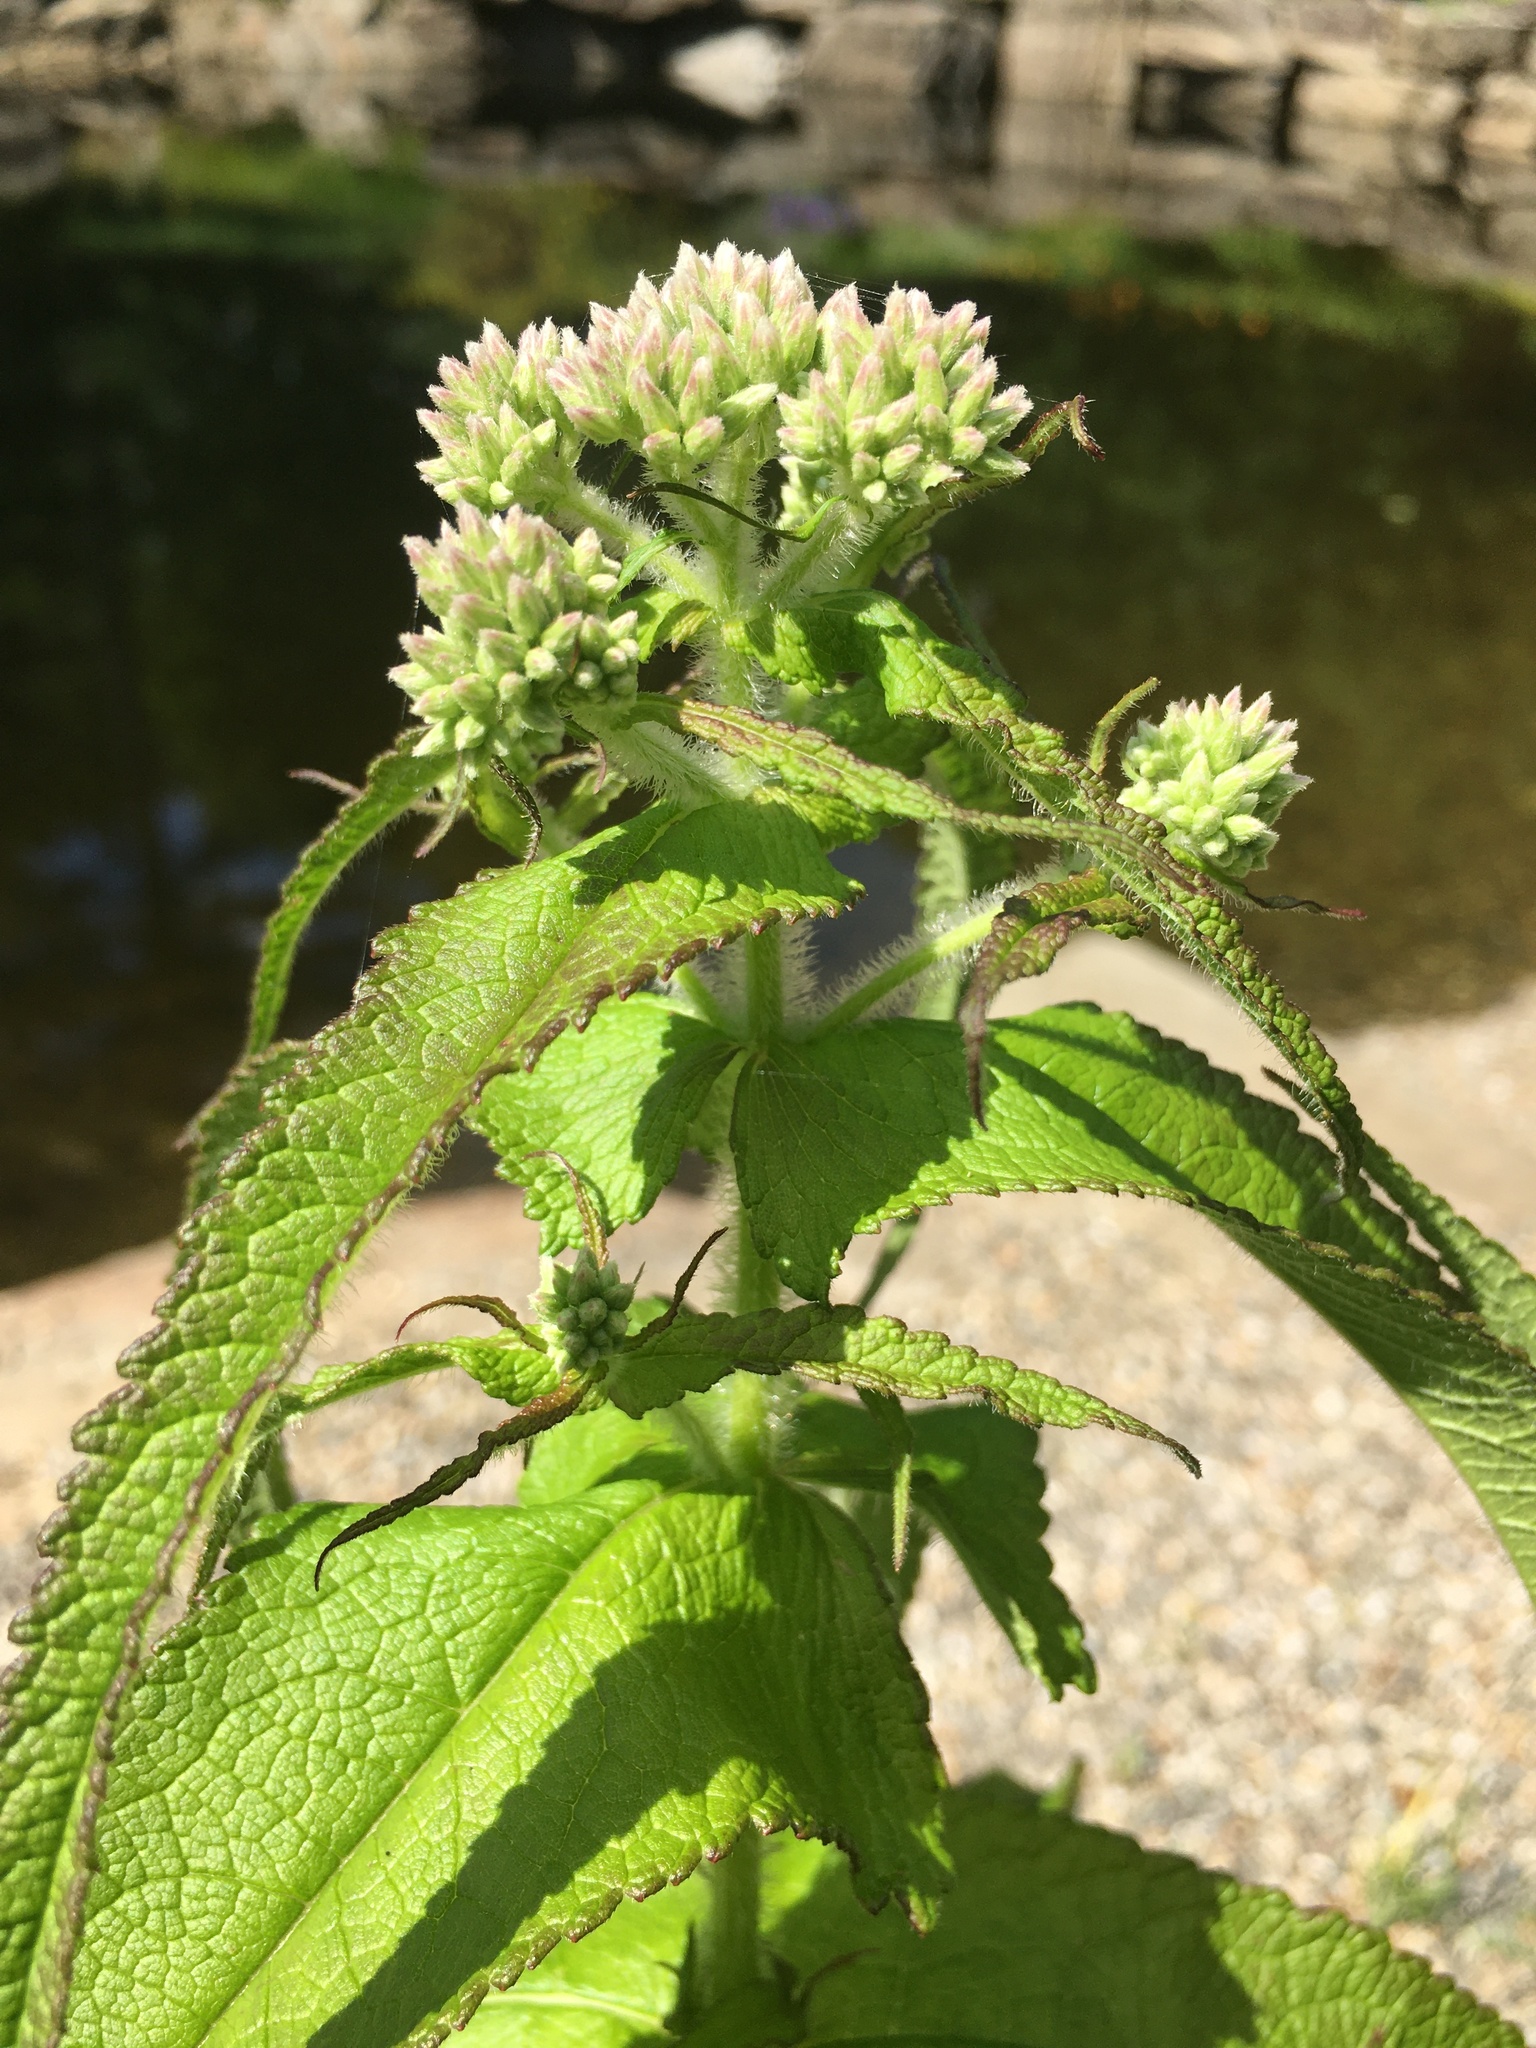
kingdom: Plantae
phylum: Tracheophyta
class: Magnoliopsida
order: Asterales
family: Asteraceae
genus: Eupatorium
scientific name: Eupatorium perfoliatum
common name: Boneset
